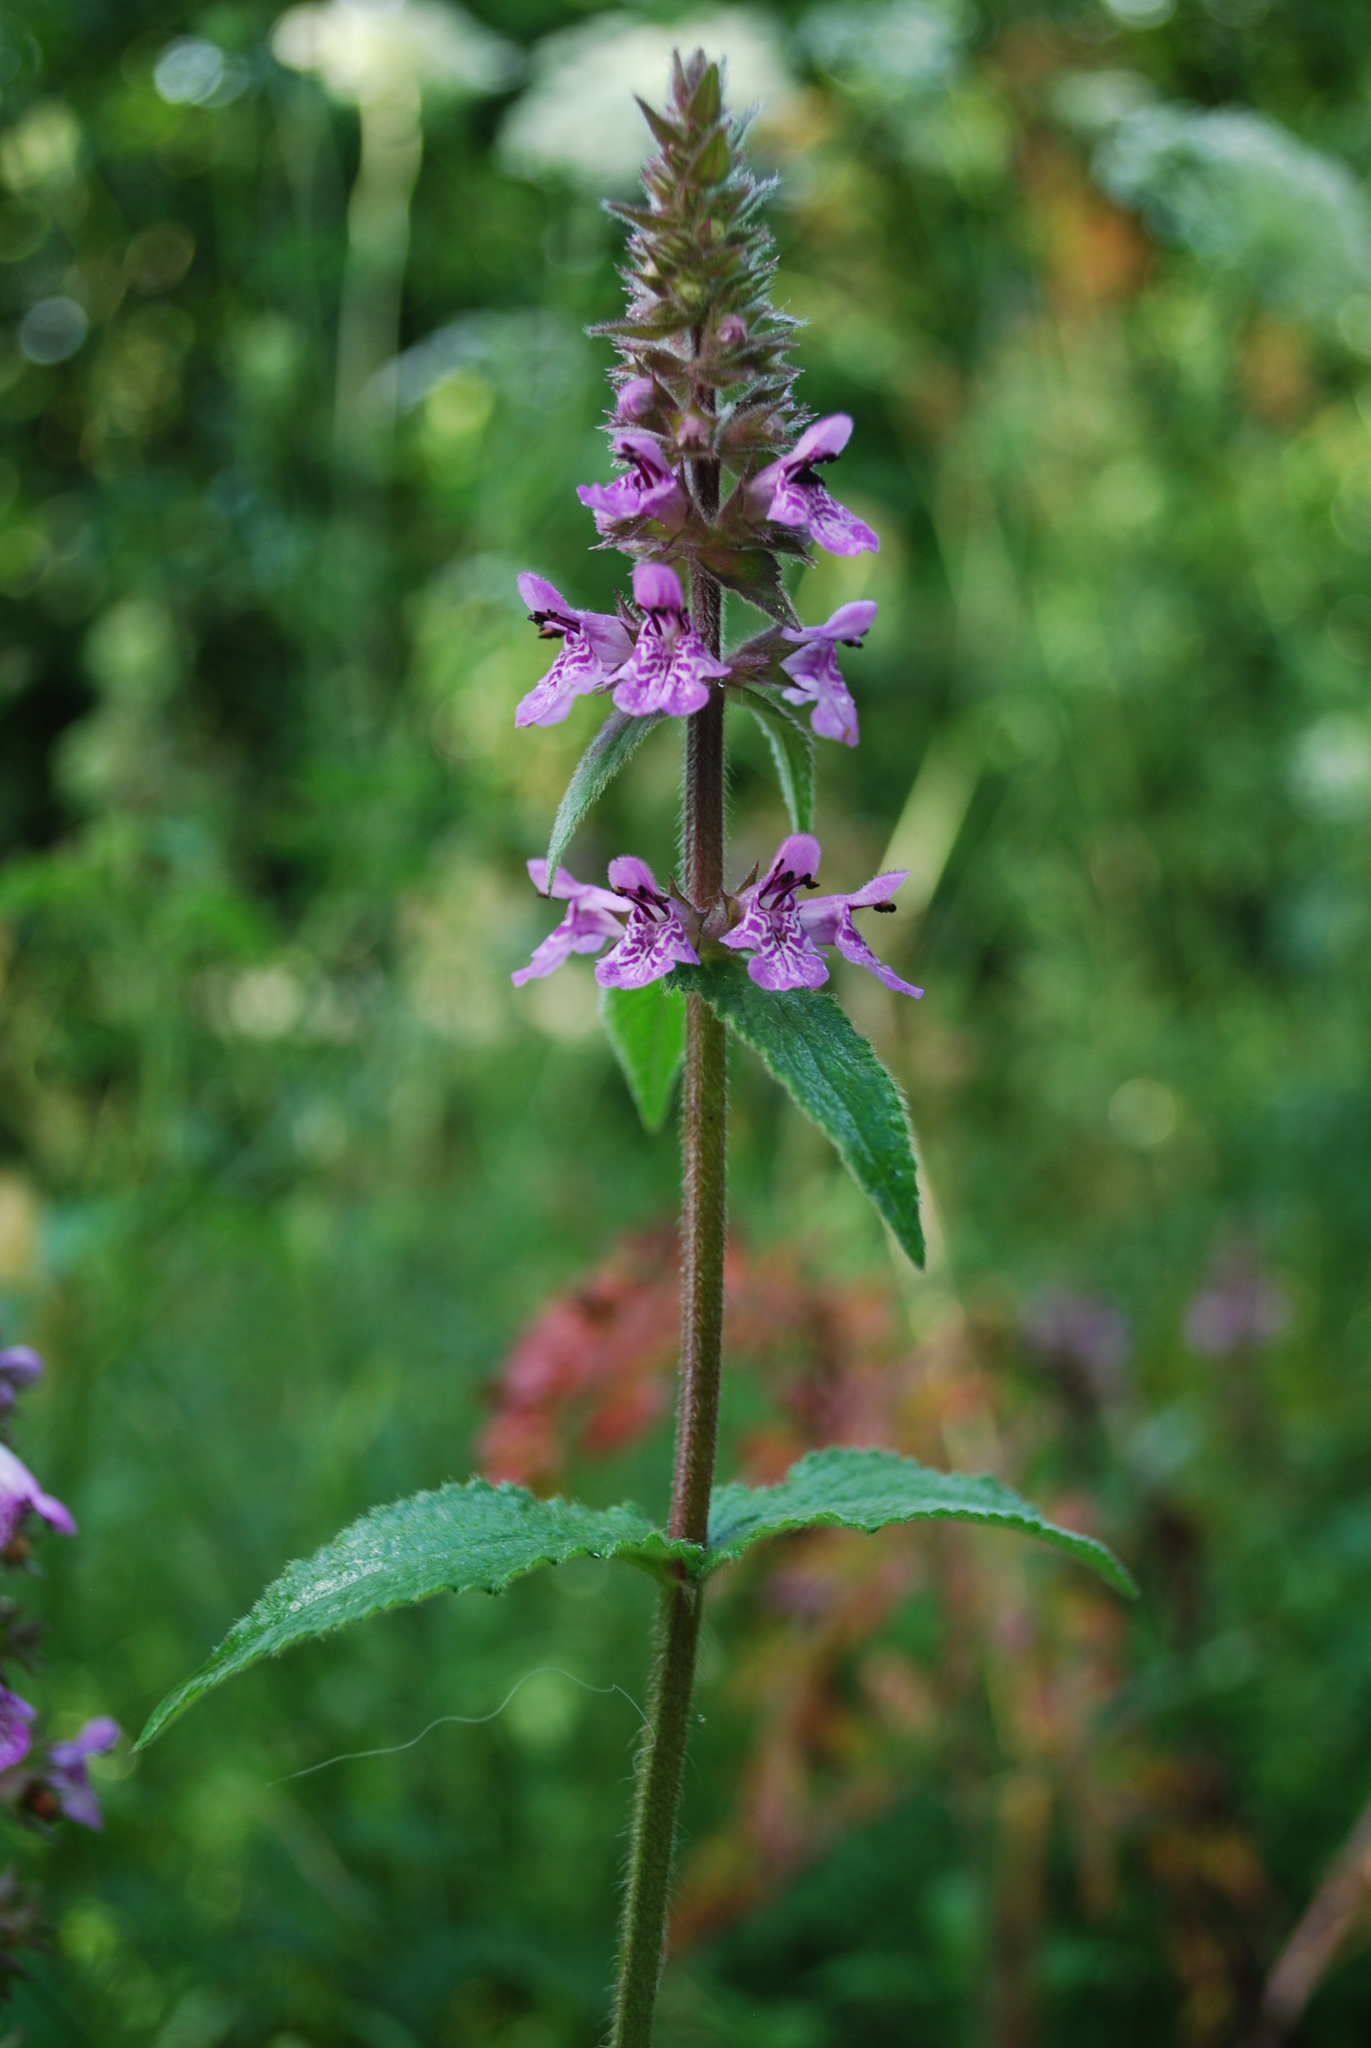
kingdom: Plantae
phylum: Tracheophyta
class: Magnoliopsida
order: Lamiales
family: Lamiaceae
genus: Stachys
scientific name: Stachys palustris
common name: Marsh woundwort
